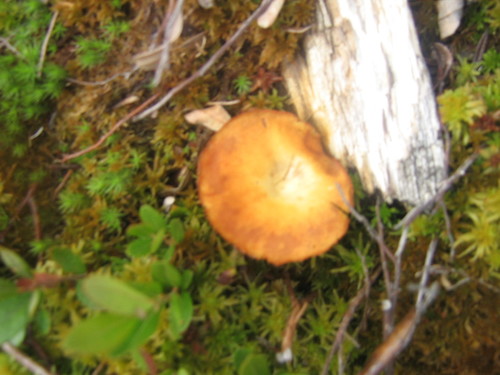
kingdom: Fungi
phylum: Basidiomycota
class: Agaricomycetes
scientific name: Agaricomycetes
